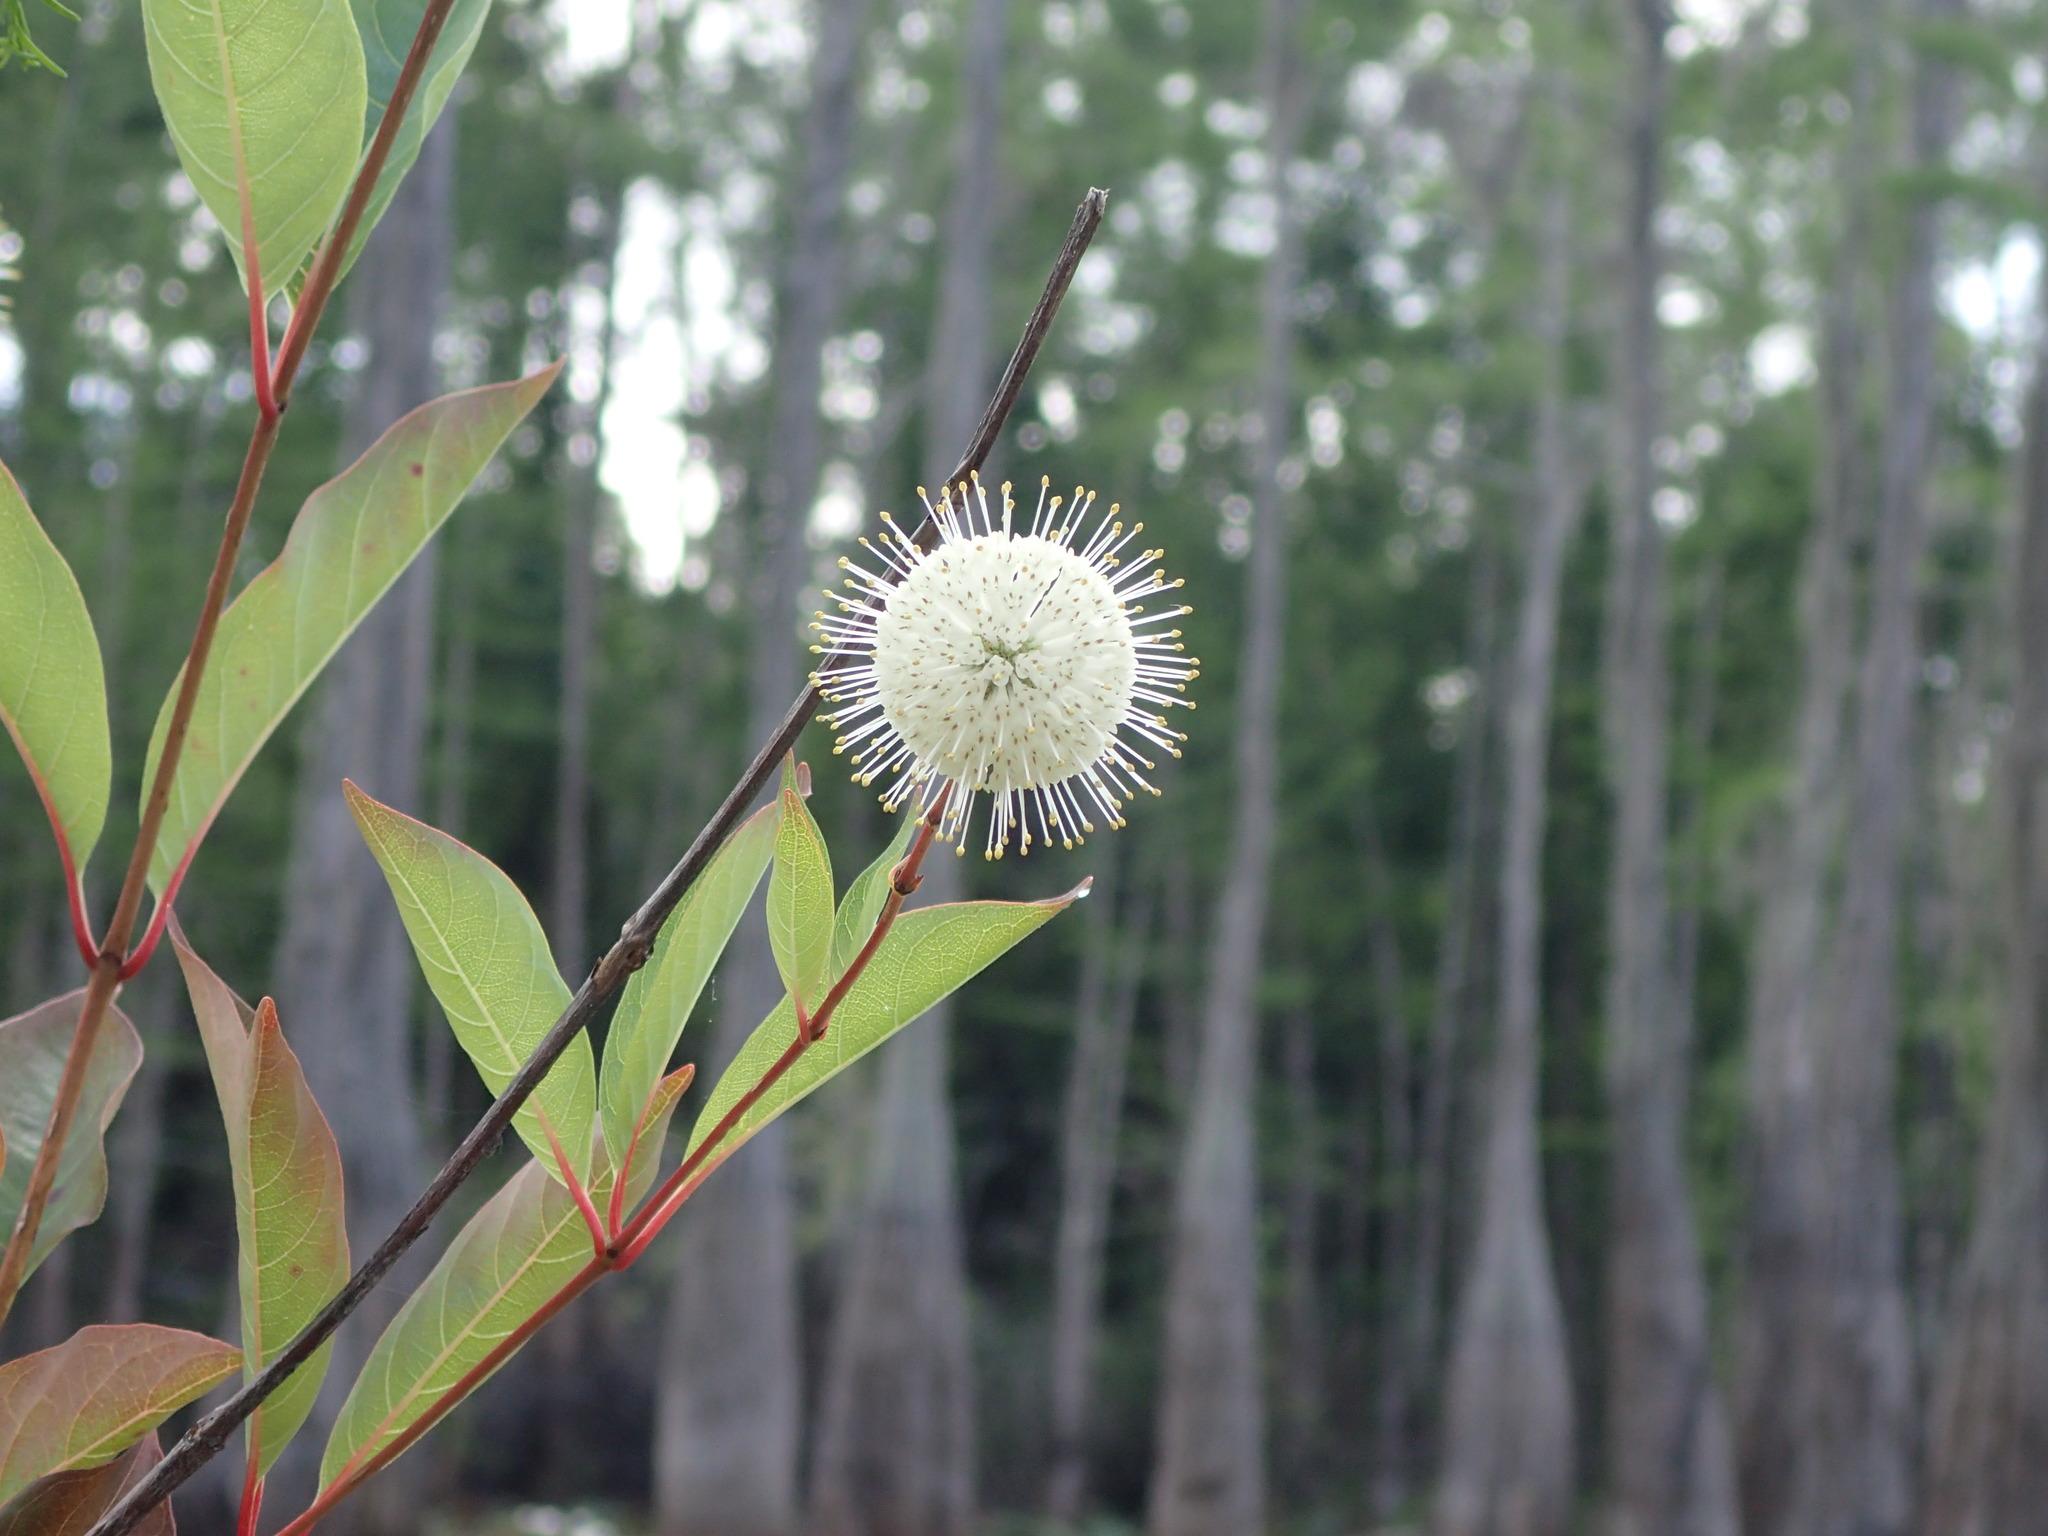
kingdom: Plantae
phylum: Tracheophyta
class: Magnoliopsida
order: Gentianales
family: Rubiaceae
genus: Cephalanthus
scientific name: Cephalanthus occidentalis
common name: Button-willow
